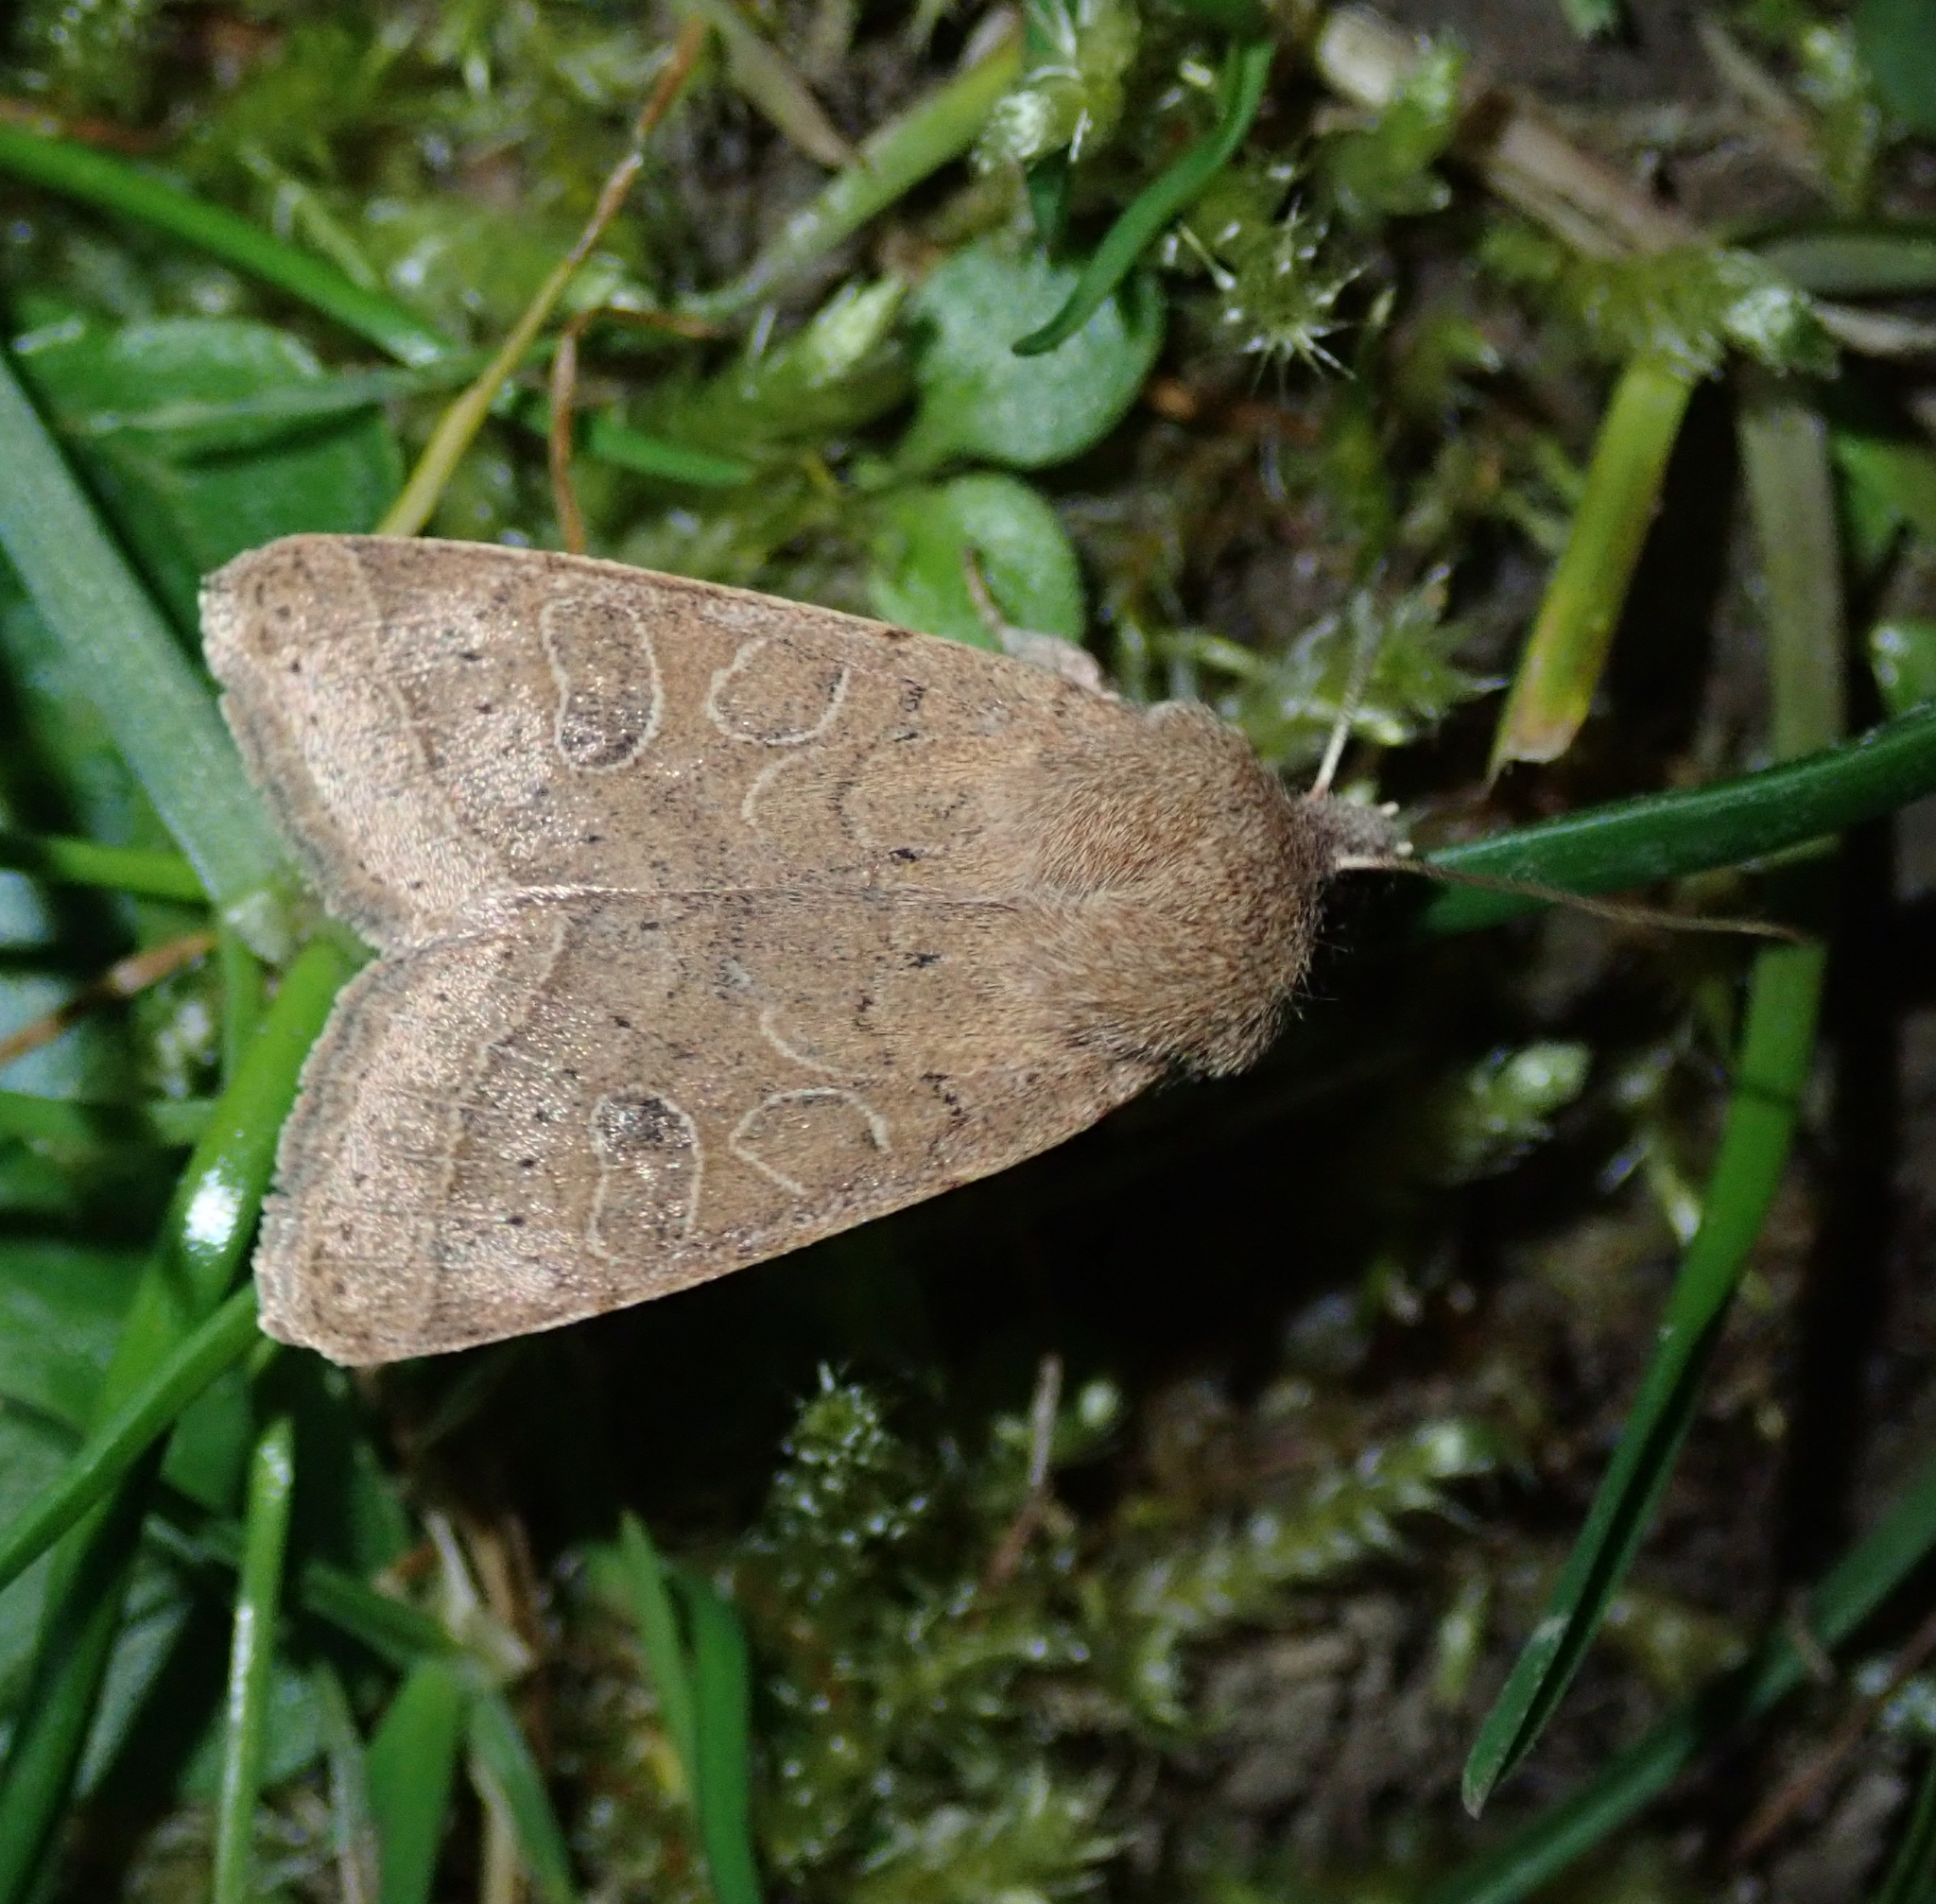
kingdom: Animalia
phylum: Arthropoda
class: Insecta
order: Lepidoptera
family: Noctuidae
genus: Orthosia
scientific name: Orthosia cerasi
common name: Common quaker
